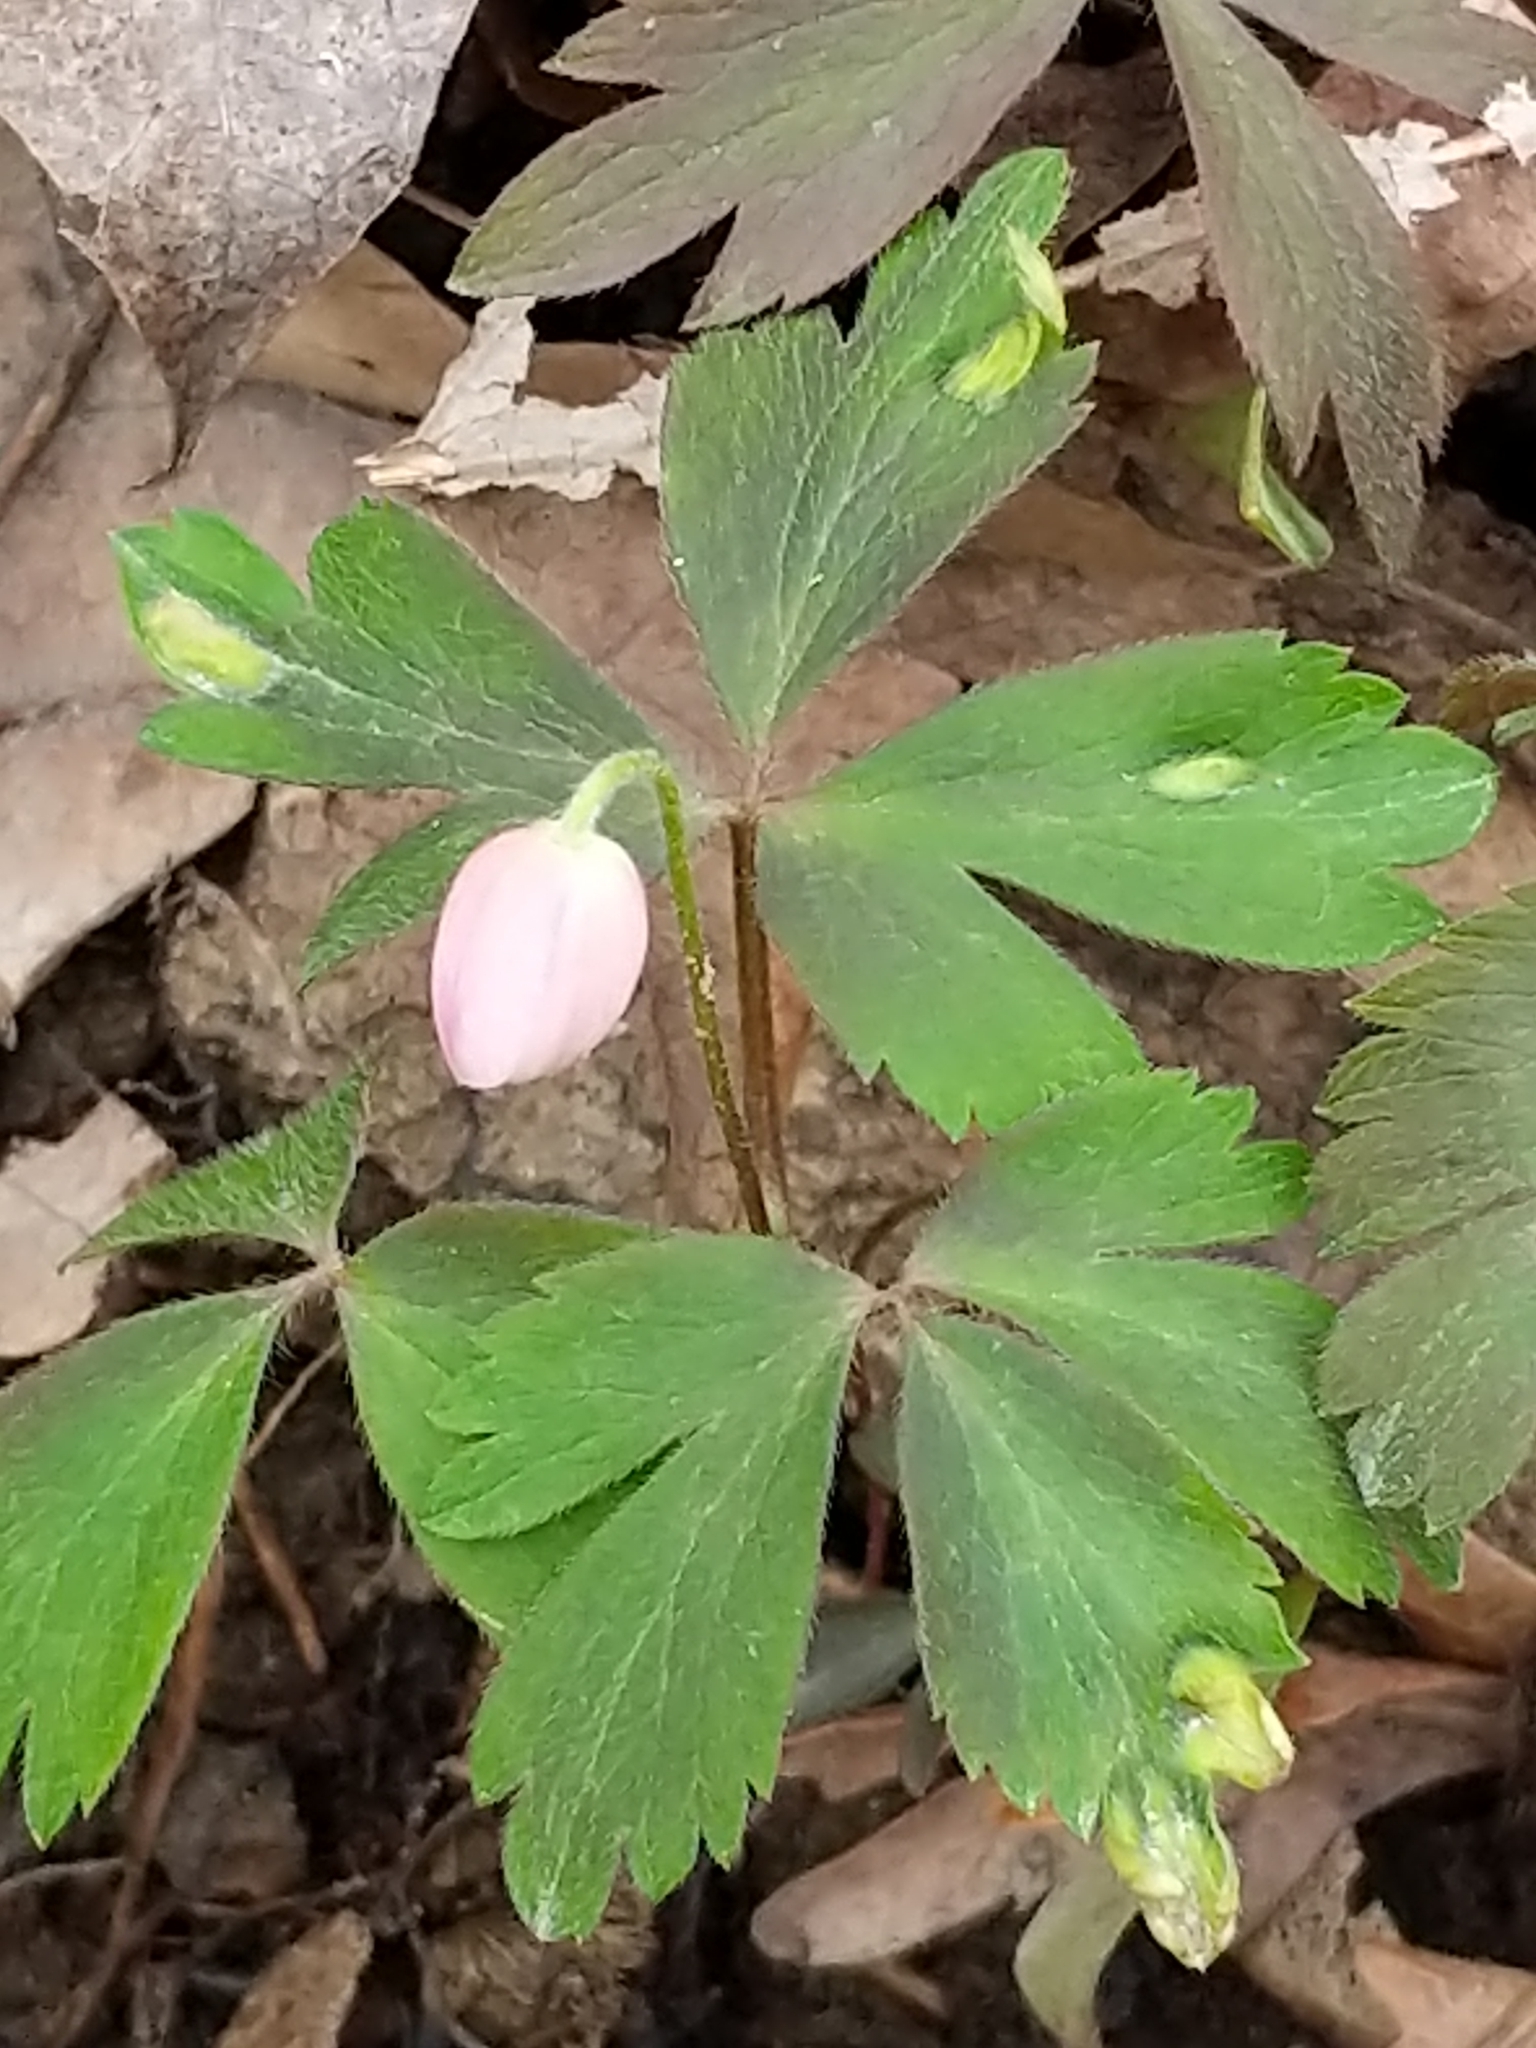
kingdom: Plantae
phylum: Tracheophyta
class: Magnoliopsida
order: Ranunculales
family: Ranunculaceae
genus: Anemone
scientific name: Anemone quinquefolia
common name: Wood anemone
